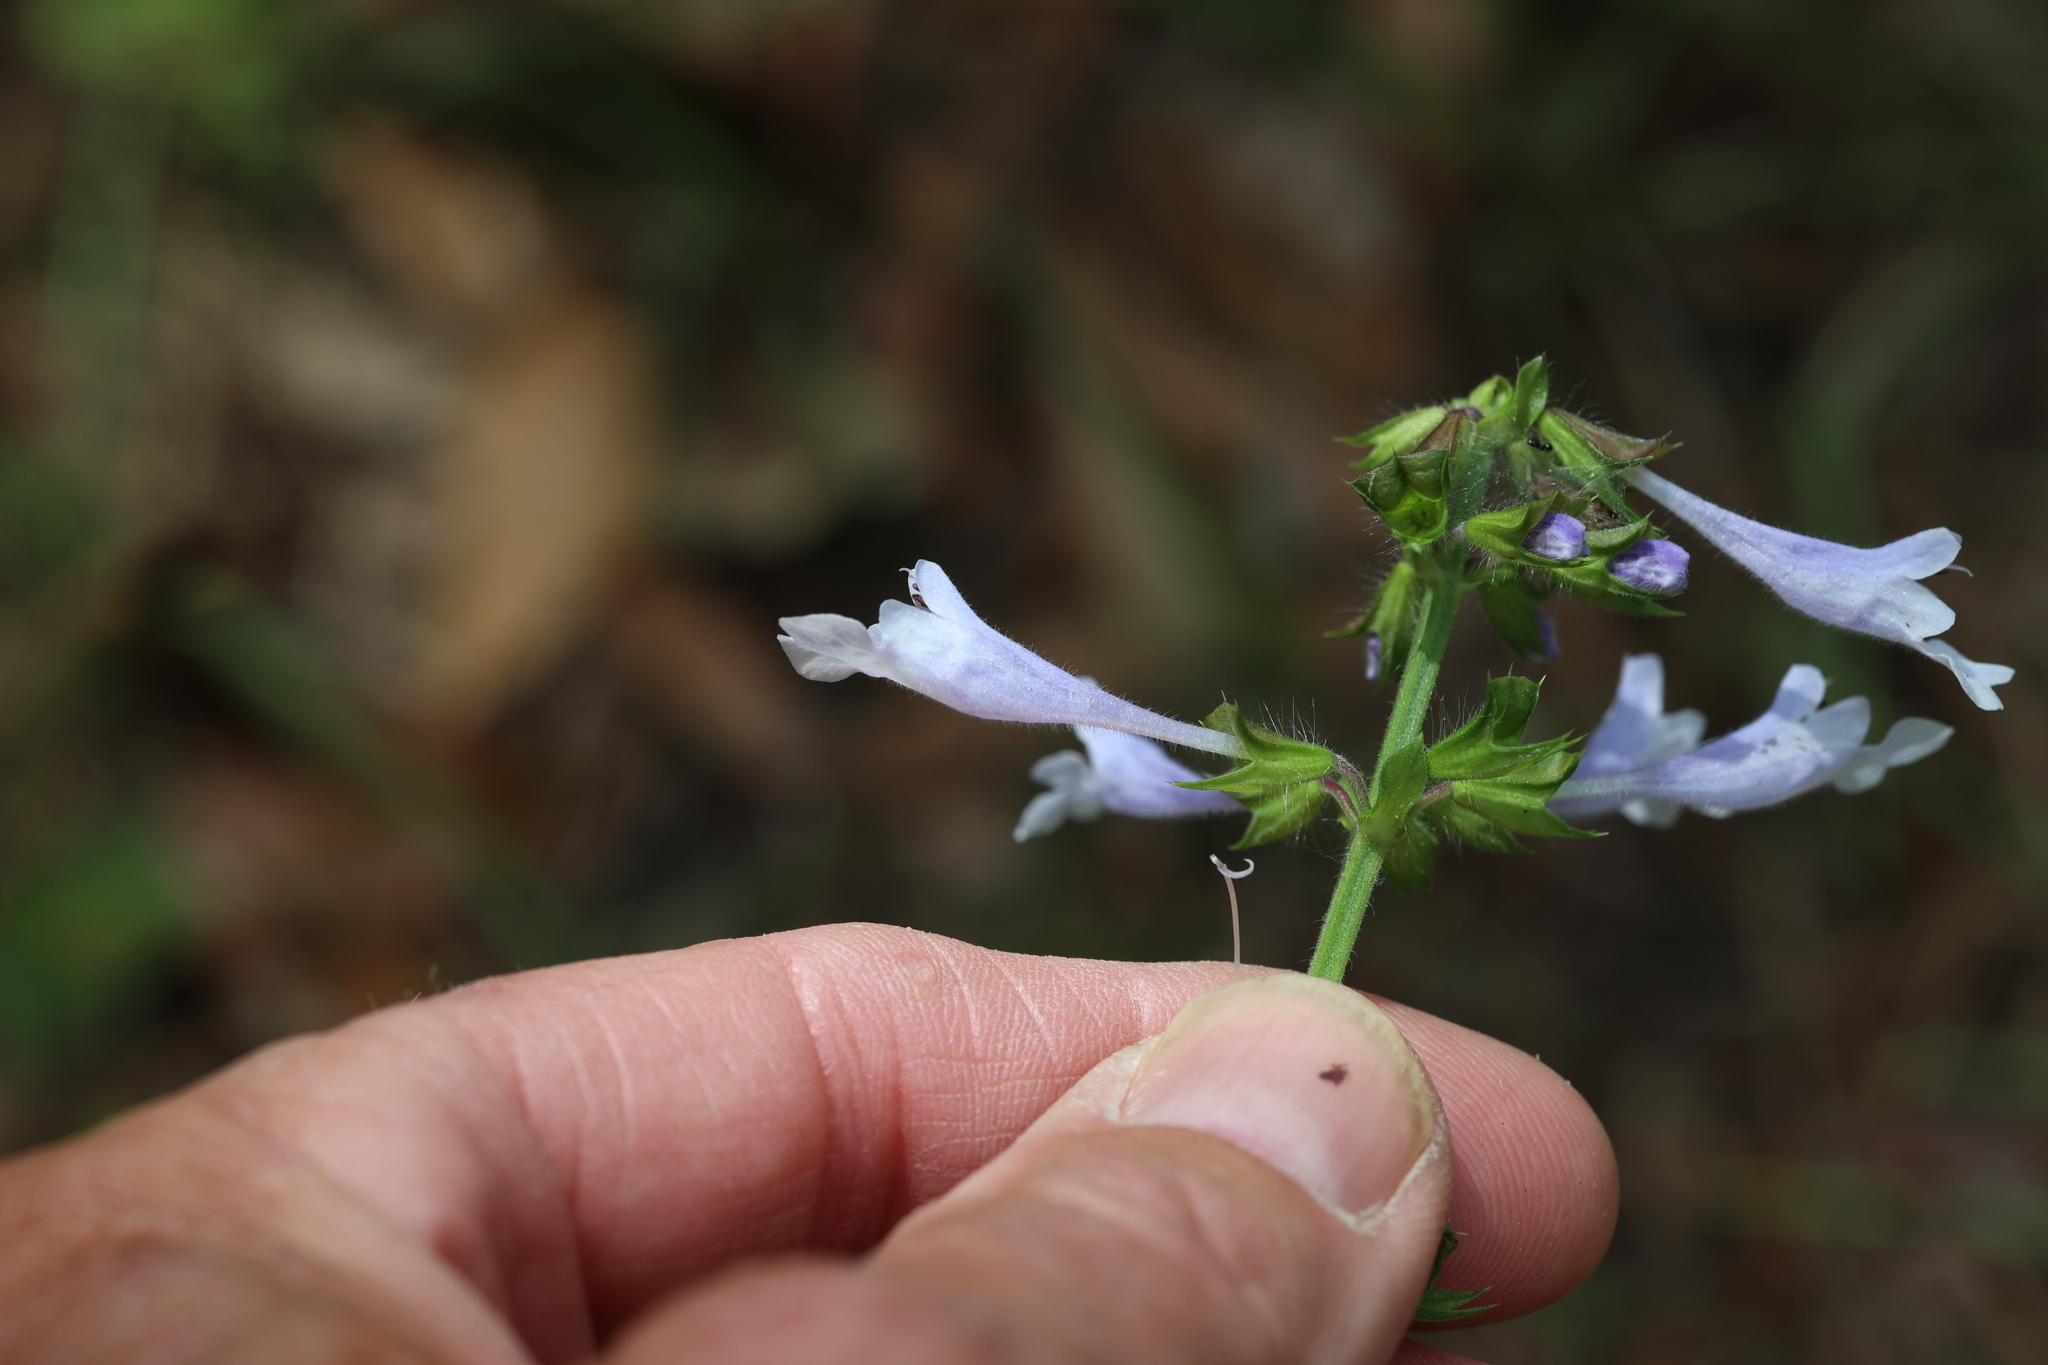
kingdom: Plantae
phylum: Tracheophyta
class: Magnoliopsida
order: Lamiales
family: Lamiaceae
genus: Salvia
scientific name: Salvia lyrata
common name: Cancerweed
